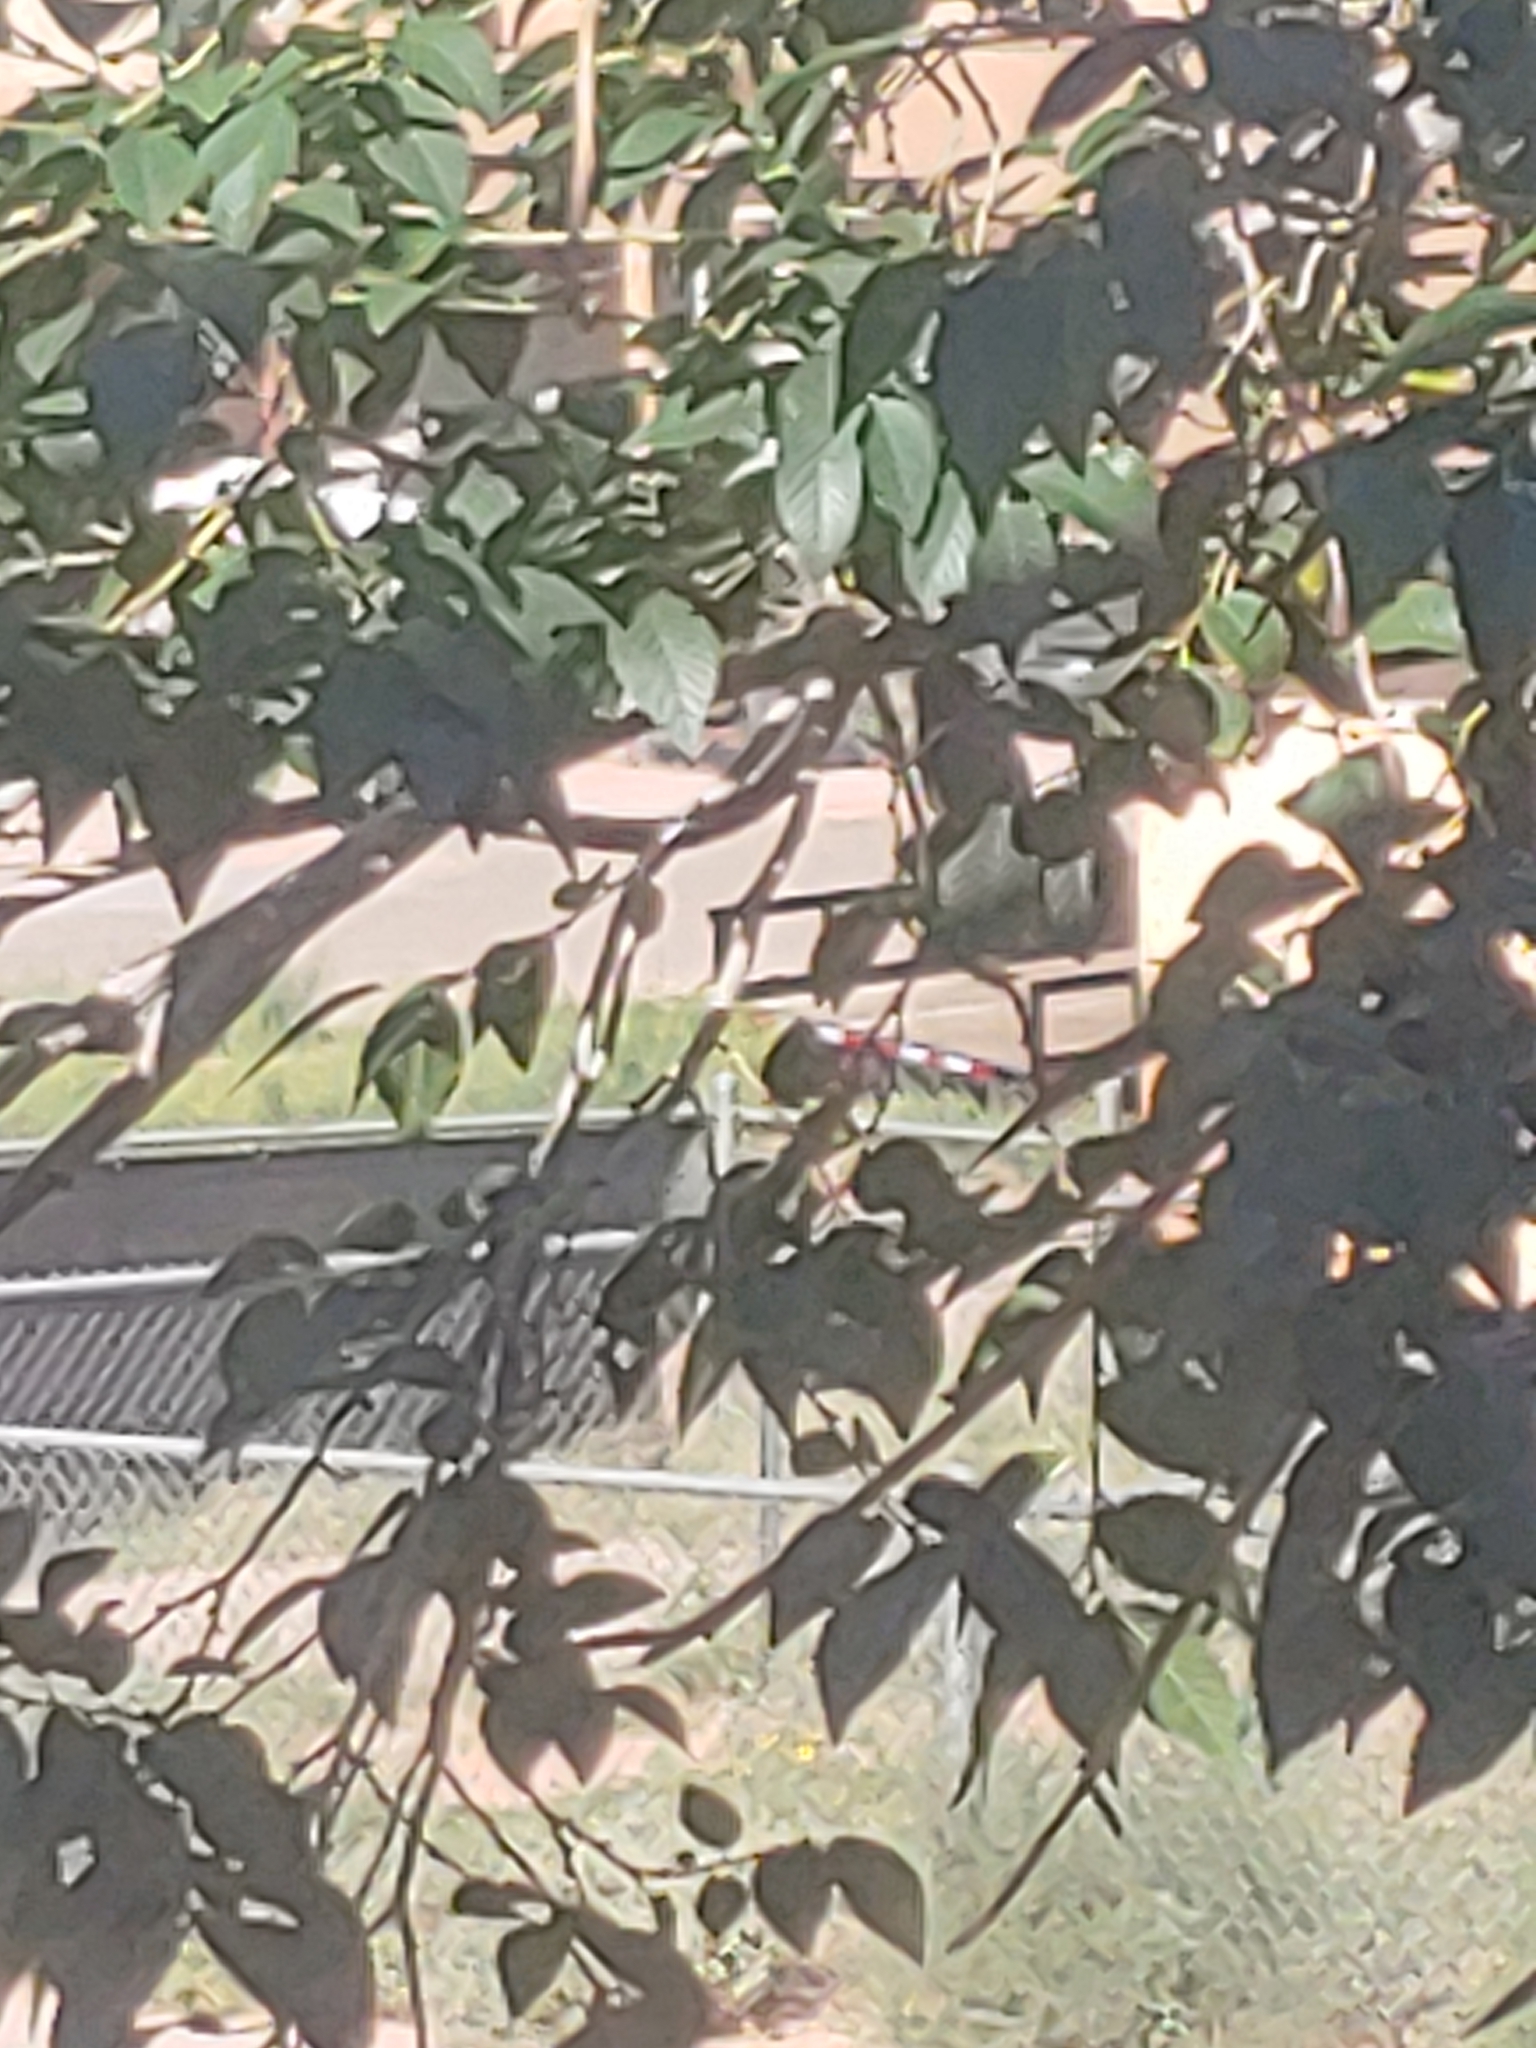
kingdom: Animalia
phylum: Chordata
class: Aves
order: Passeriformes
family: Regulidae
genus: Regulus
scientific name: Regulus calendula
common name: Ruby-crowned kinglet
